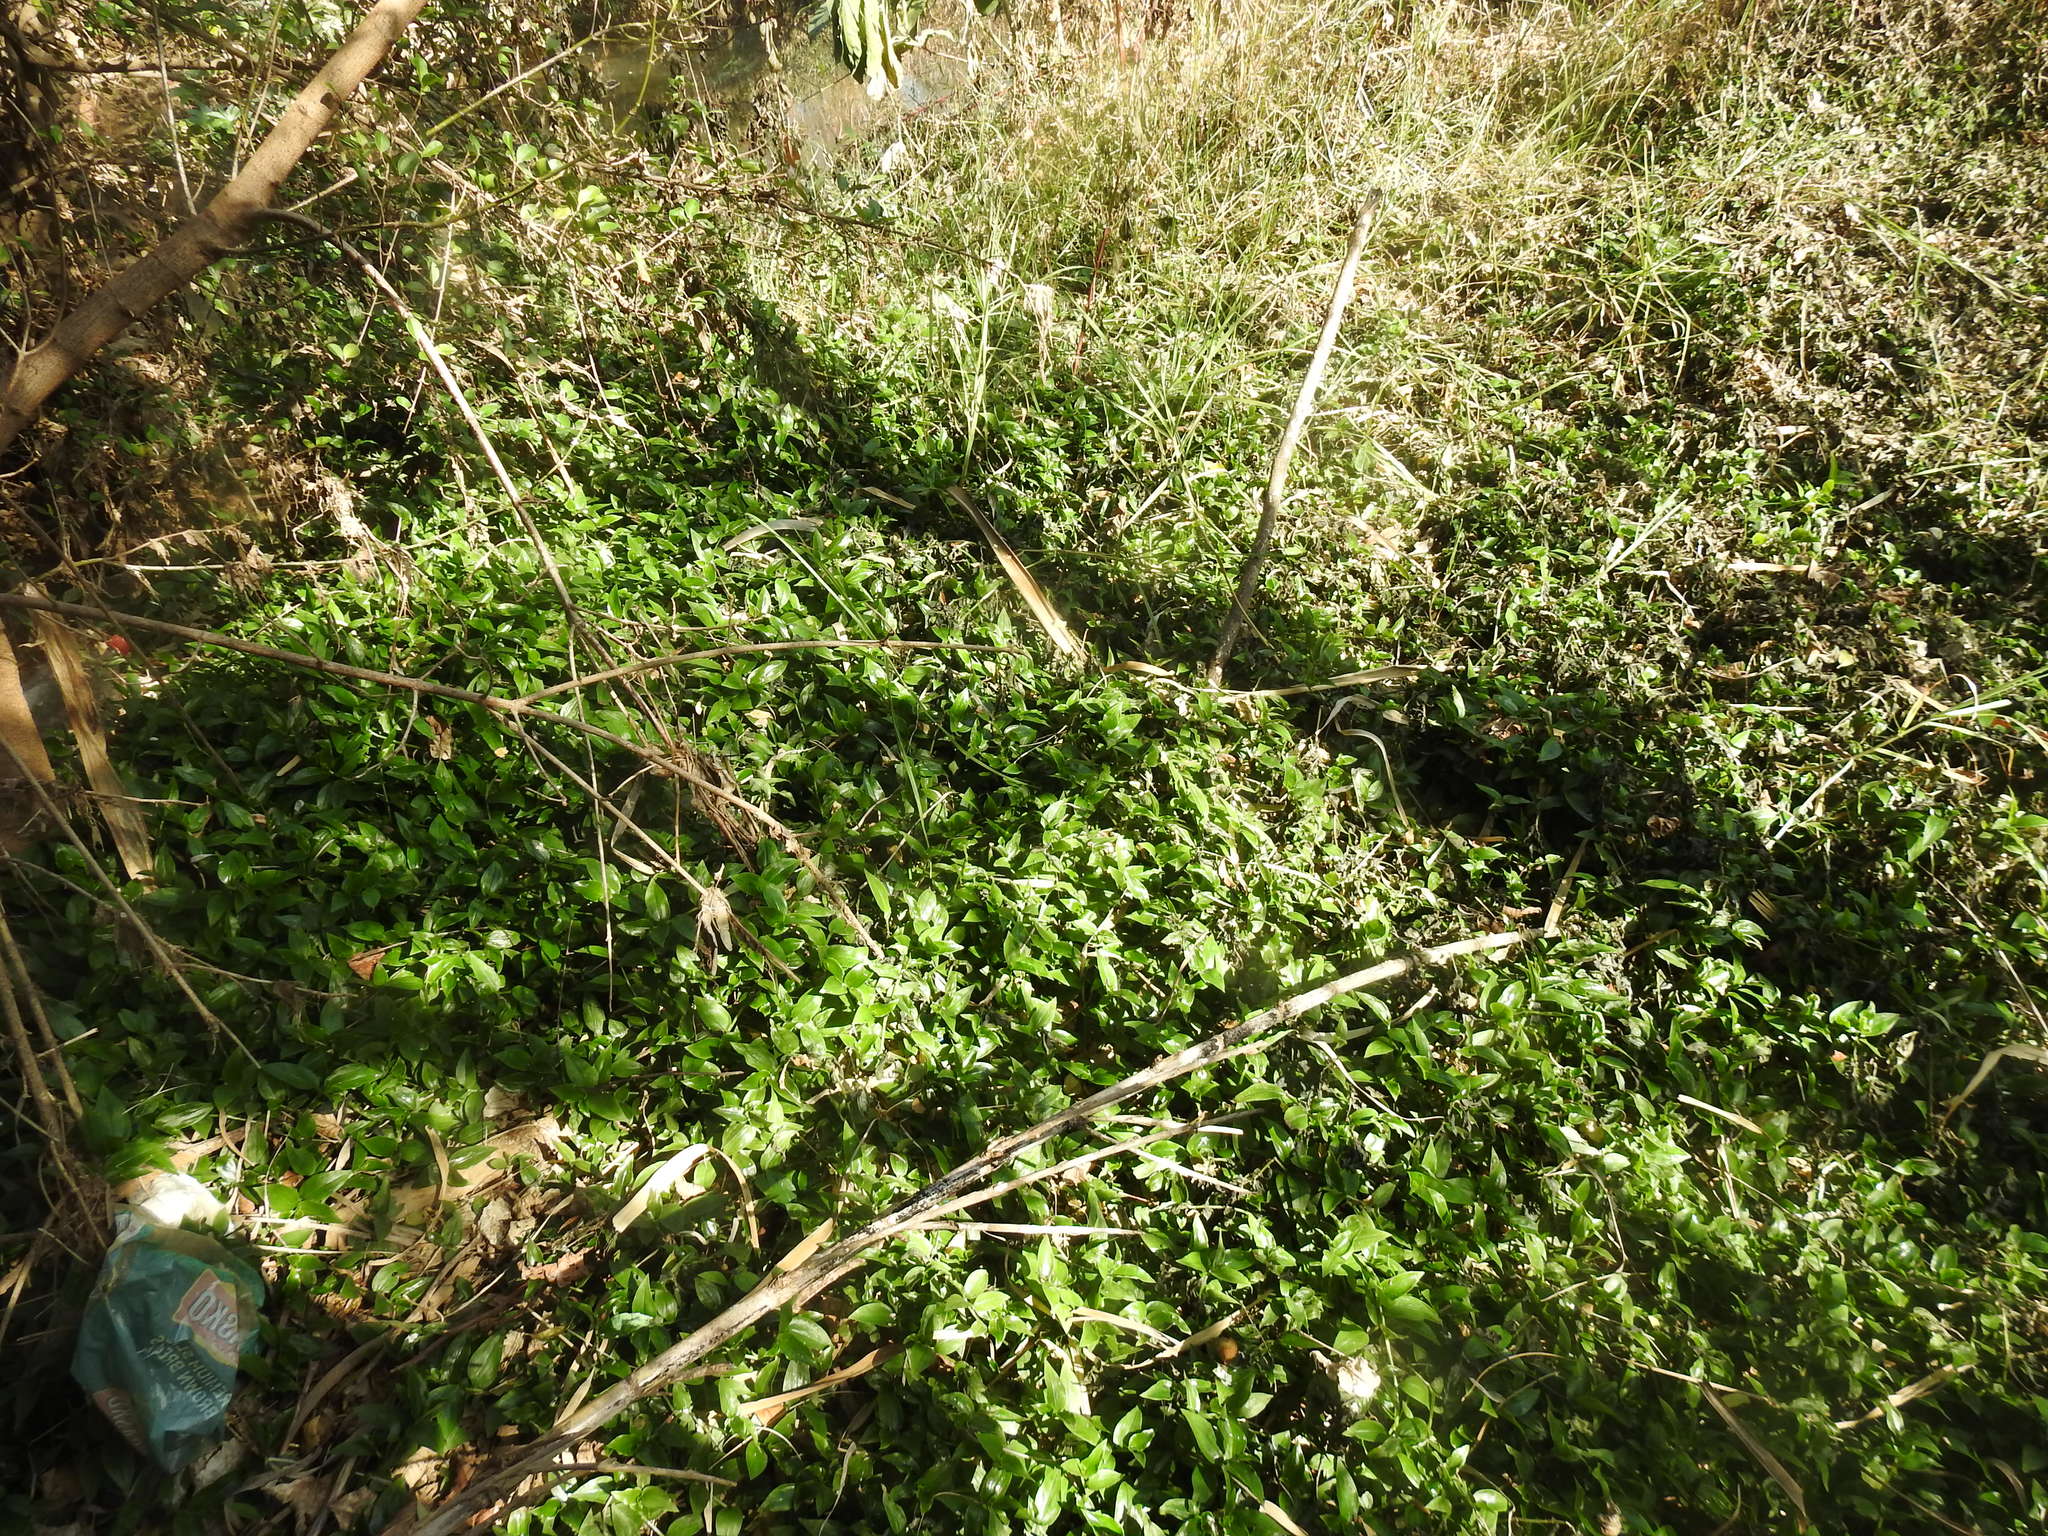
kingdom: Plantae
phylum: Tracheophyta
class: Liliopsida
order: Commelinales
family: Commelinaceae
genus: Tradescantia
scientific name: Tradescantia fluminensis
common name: Wandering-jew
